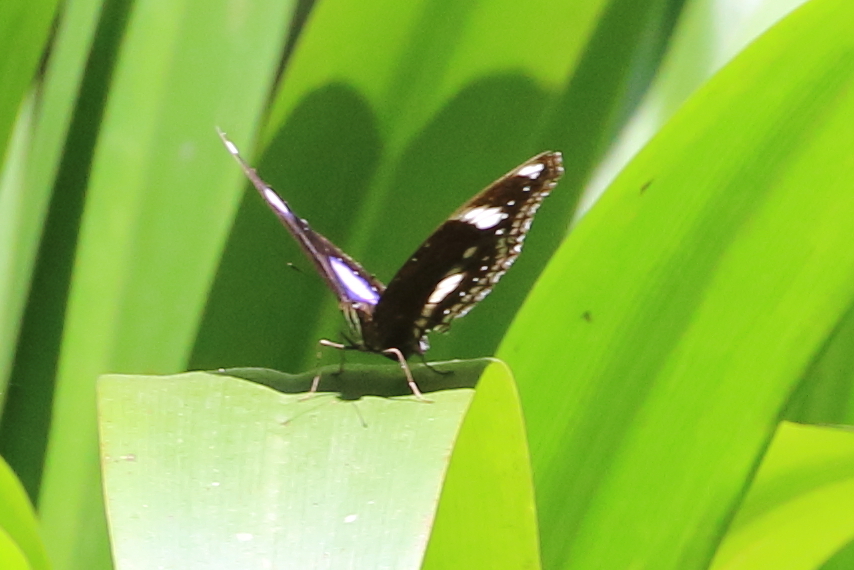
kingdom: Animalia
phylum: Arthropoda
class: Insecta
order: Lepidoptera
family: Nymphalidae
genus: Hypolimnas
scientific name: Hypolimnas bolina
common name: Great eggfly
